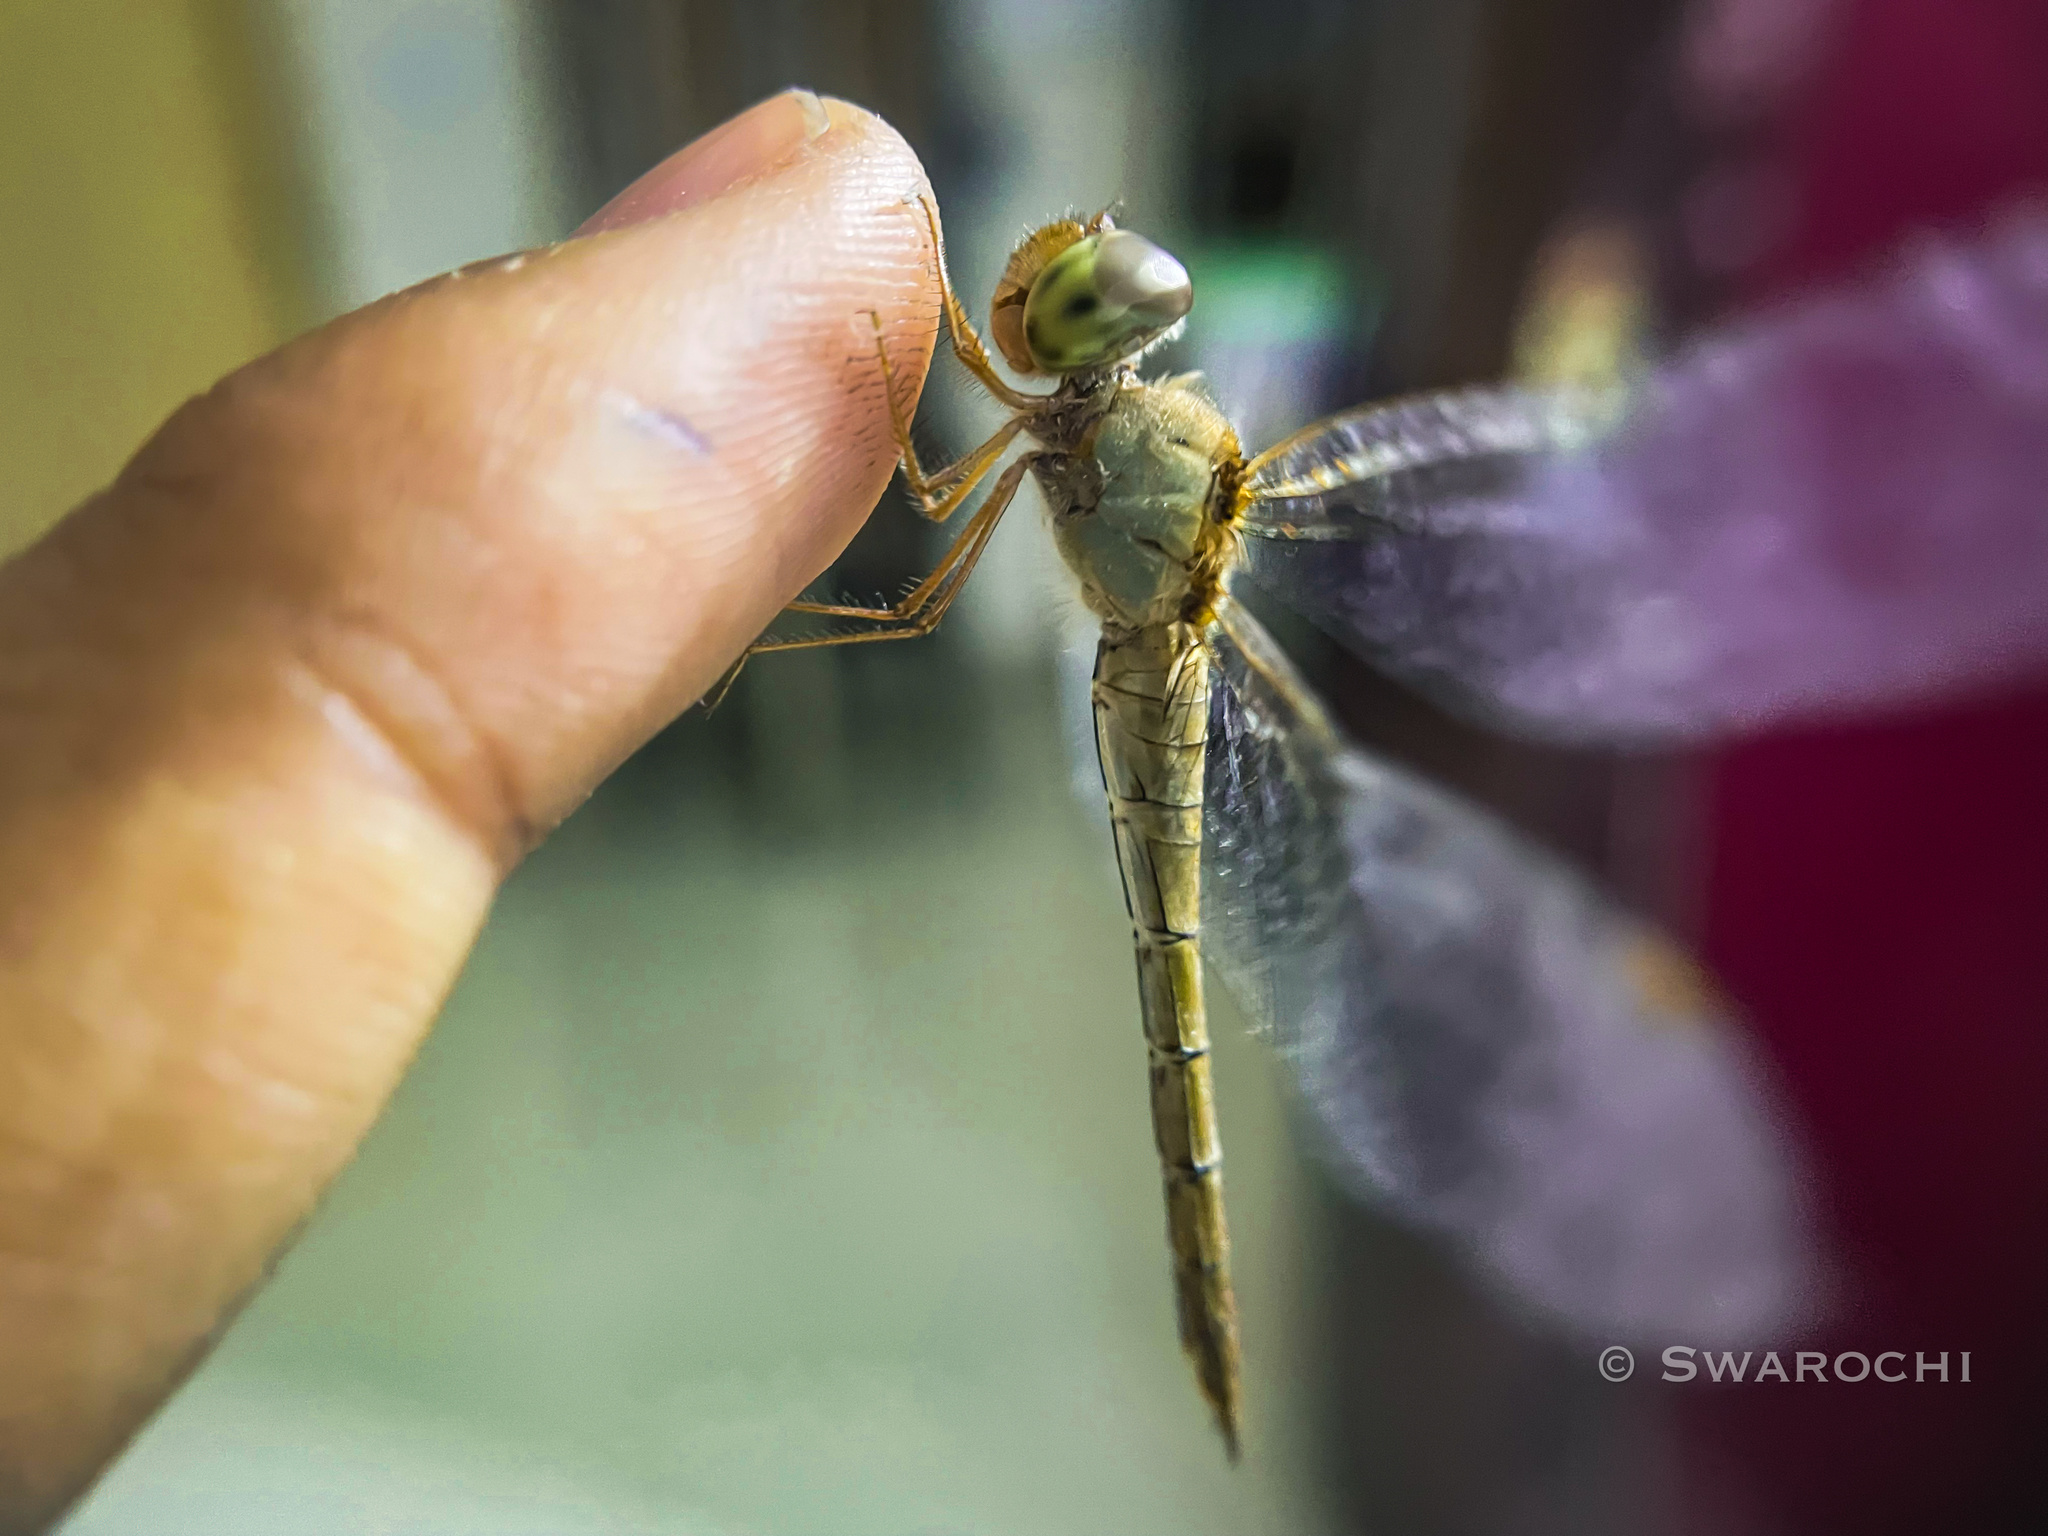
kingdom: Animalia
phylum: Arthropoda
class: Insecta
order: Odonata
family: Libellulidae
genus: Tholymis
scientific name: Tholymis tillarga
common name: Coral-tailed cloud wing
